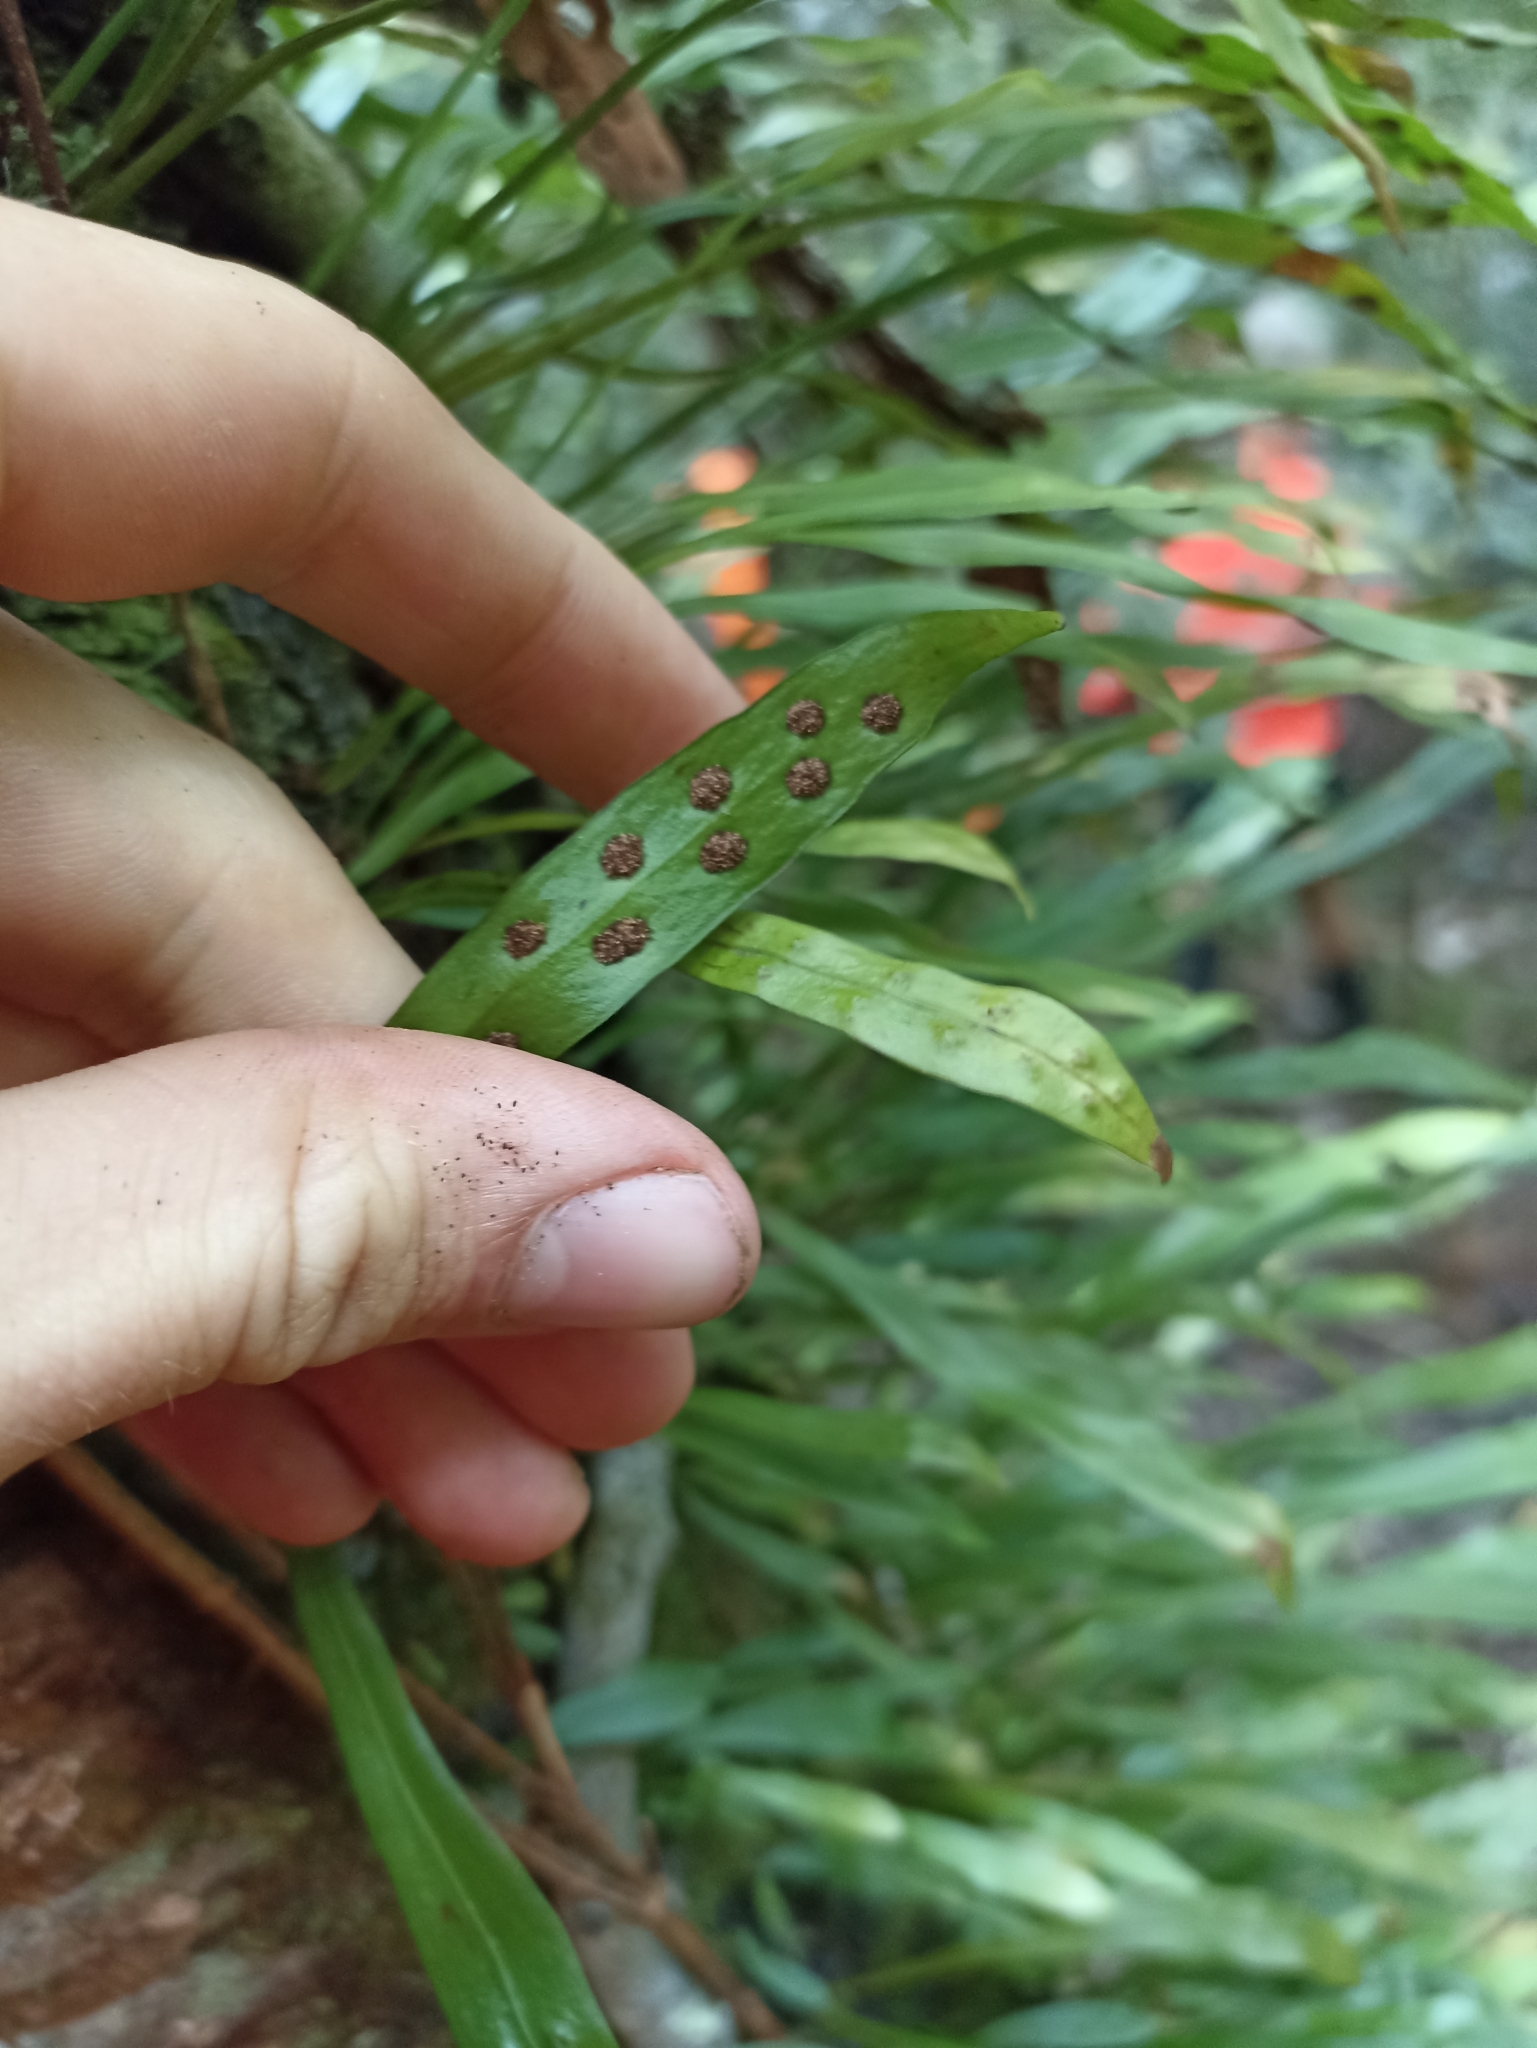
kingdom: Plantae
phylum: Tracheophyta
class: Polypodiopsida
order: Polypodiales
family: Polypodiaceae
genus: Loxogramme
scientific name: Loxogramme dictyopteris
